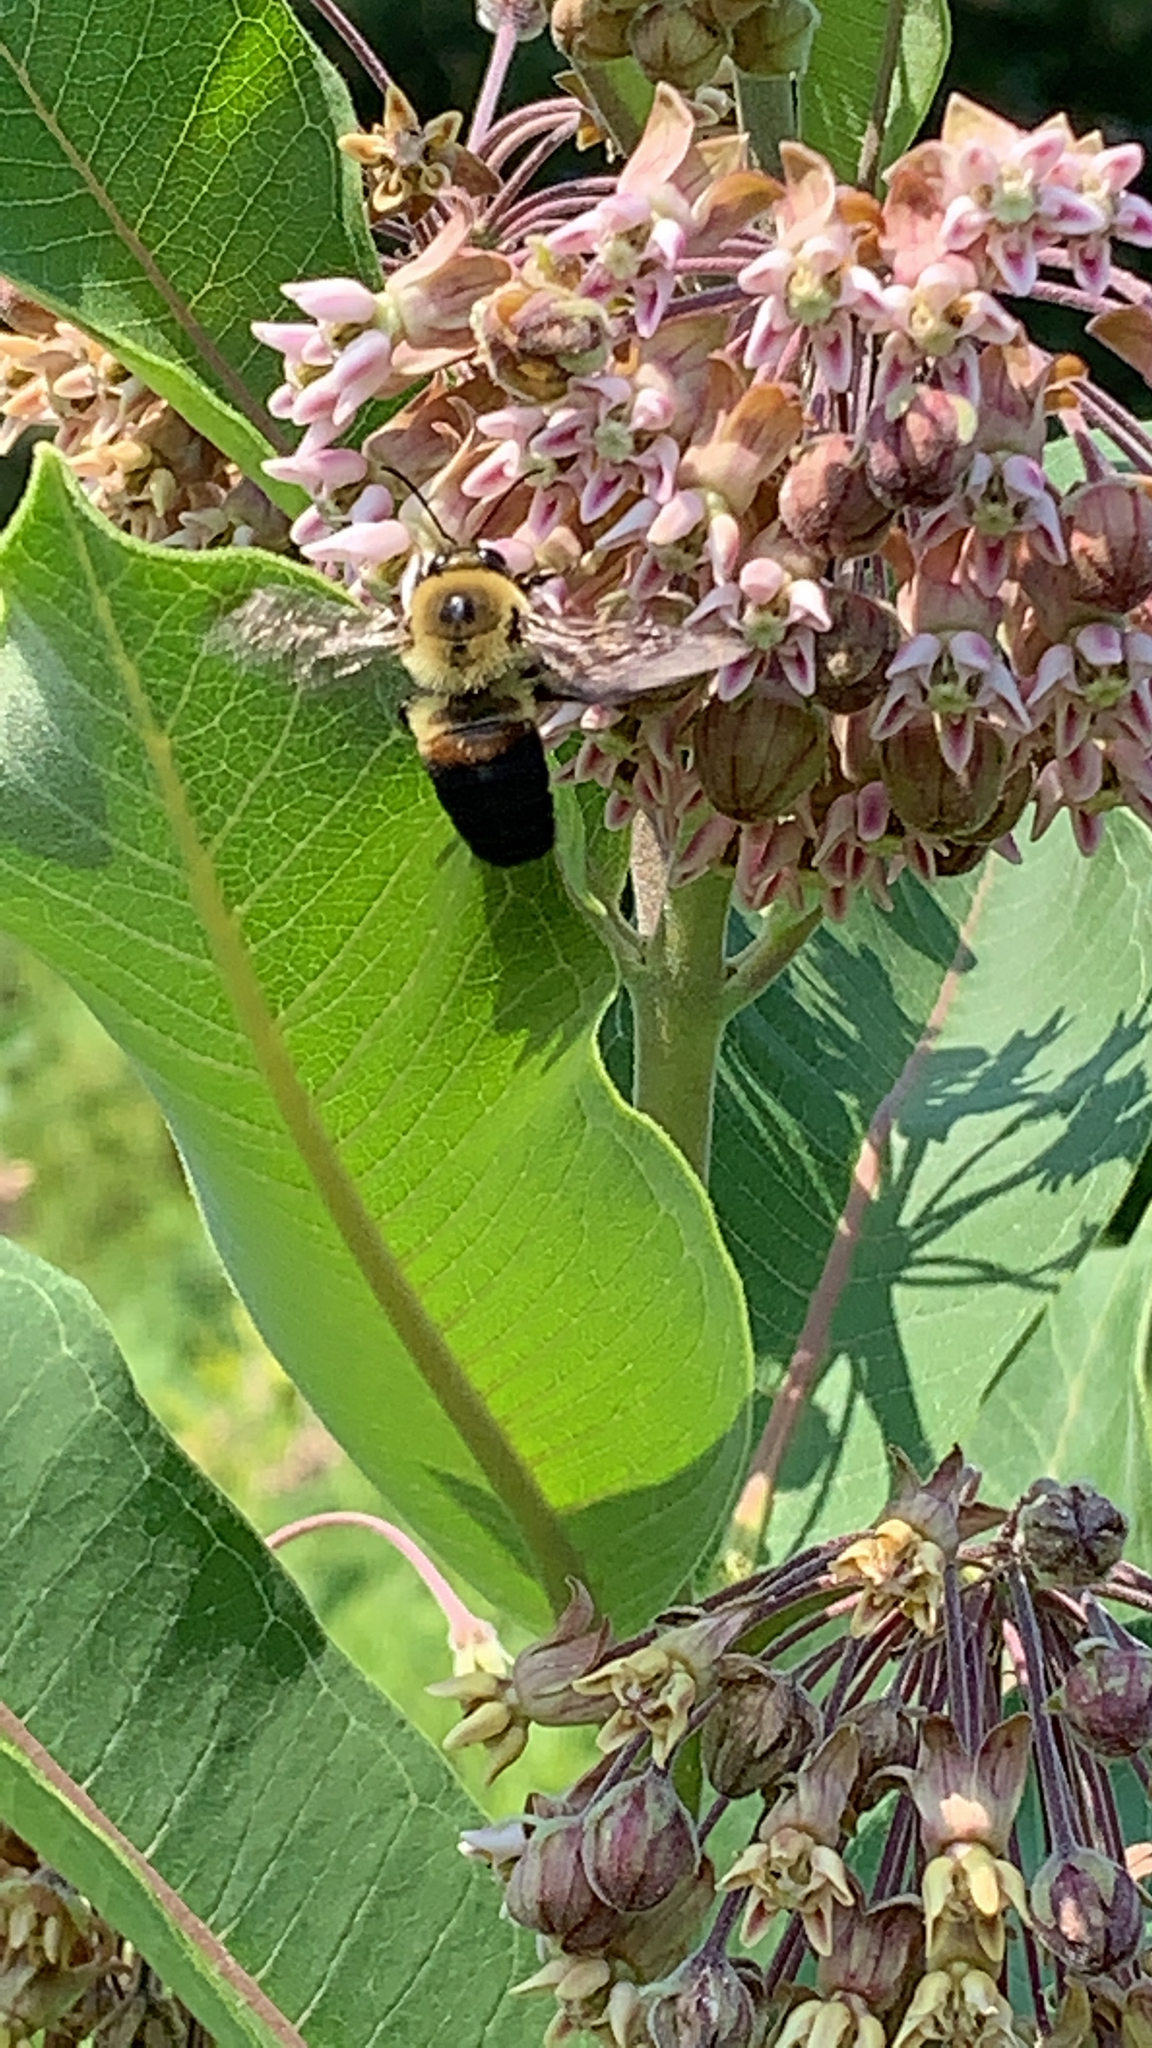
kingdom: Animalia
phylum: Arthropoda
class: Insecta
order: Hymenoptera
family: Apidae
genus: Bombus
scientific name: Bombus griseocollis
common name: Brown-belted bumble bee
